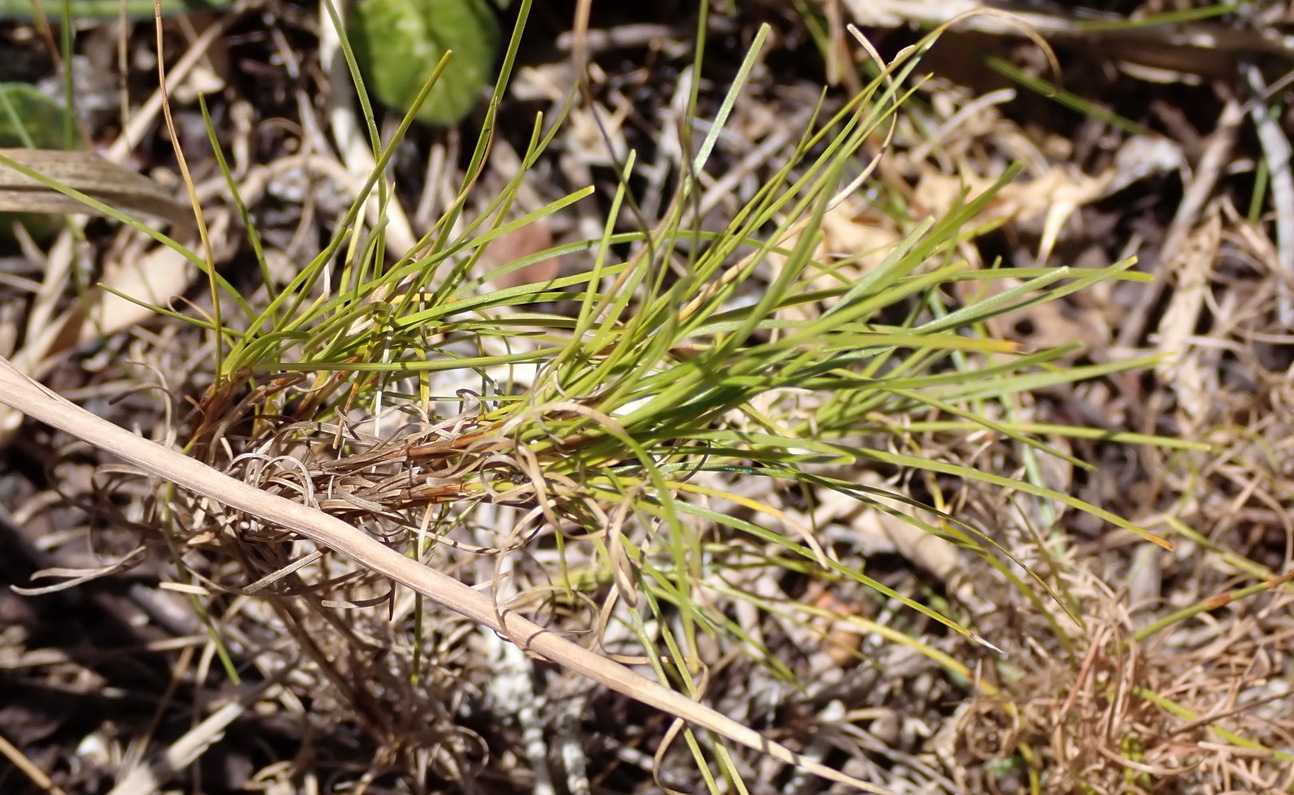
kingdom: Plantae
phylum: Tracheophyta
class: Liliopsida
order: Poales
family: Cyperaceae
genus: Ficinia
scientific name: Ficinia ramosissima
